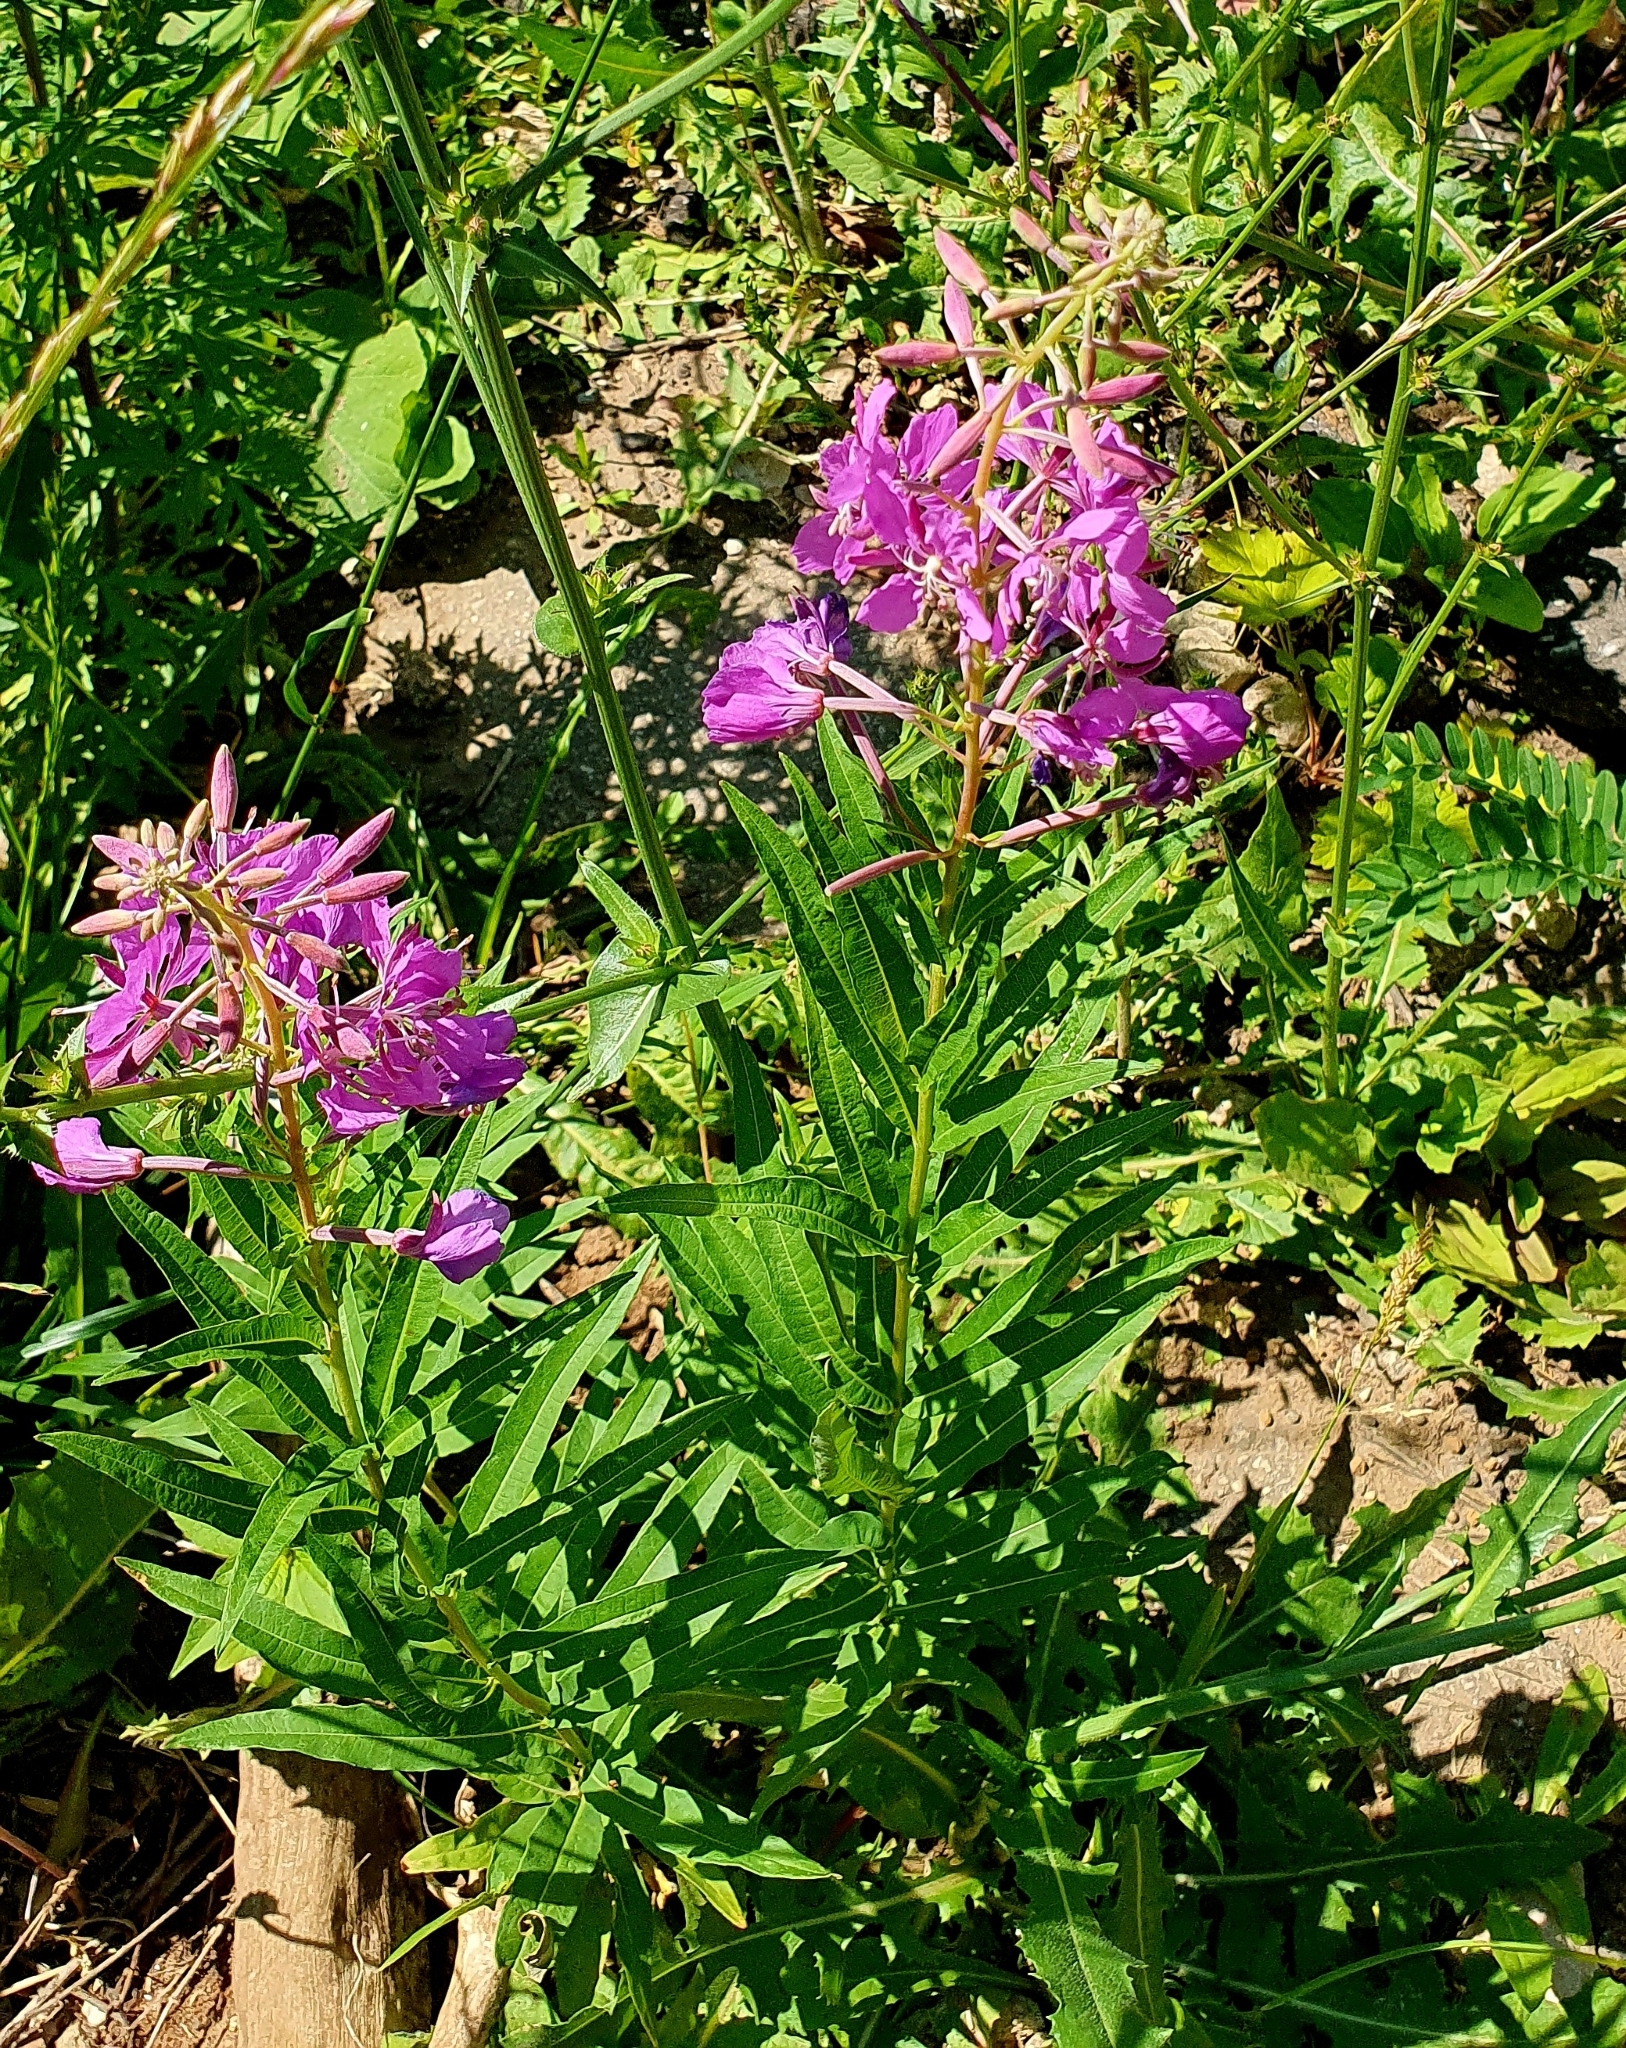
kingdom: Plantae
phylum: Tracheophyta
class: Magnoliopsida
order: Myrtales
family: Onagraceae
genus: Chamaenerion
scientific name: Chamaenerion angustifolium
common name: Fireweed
